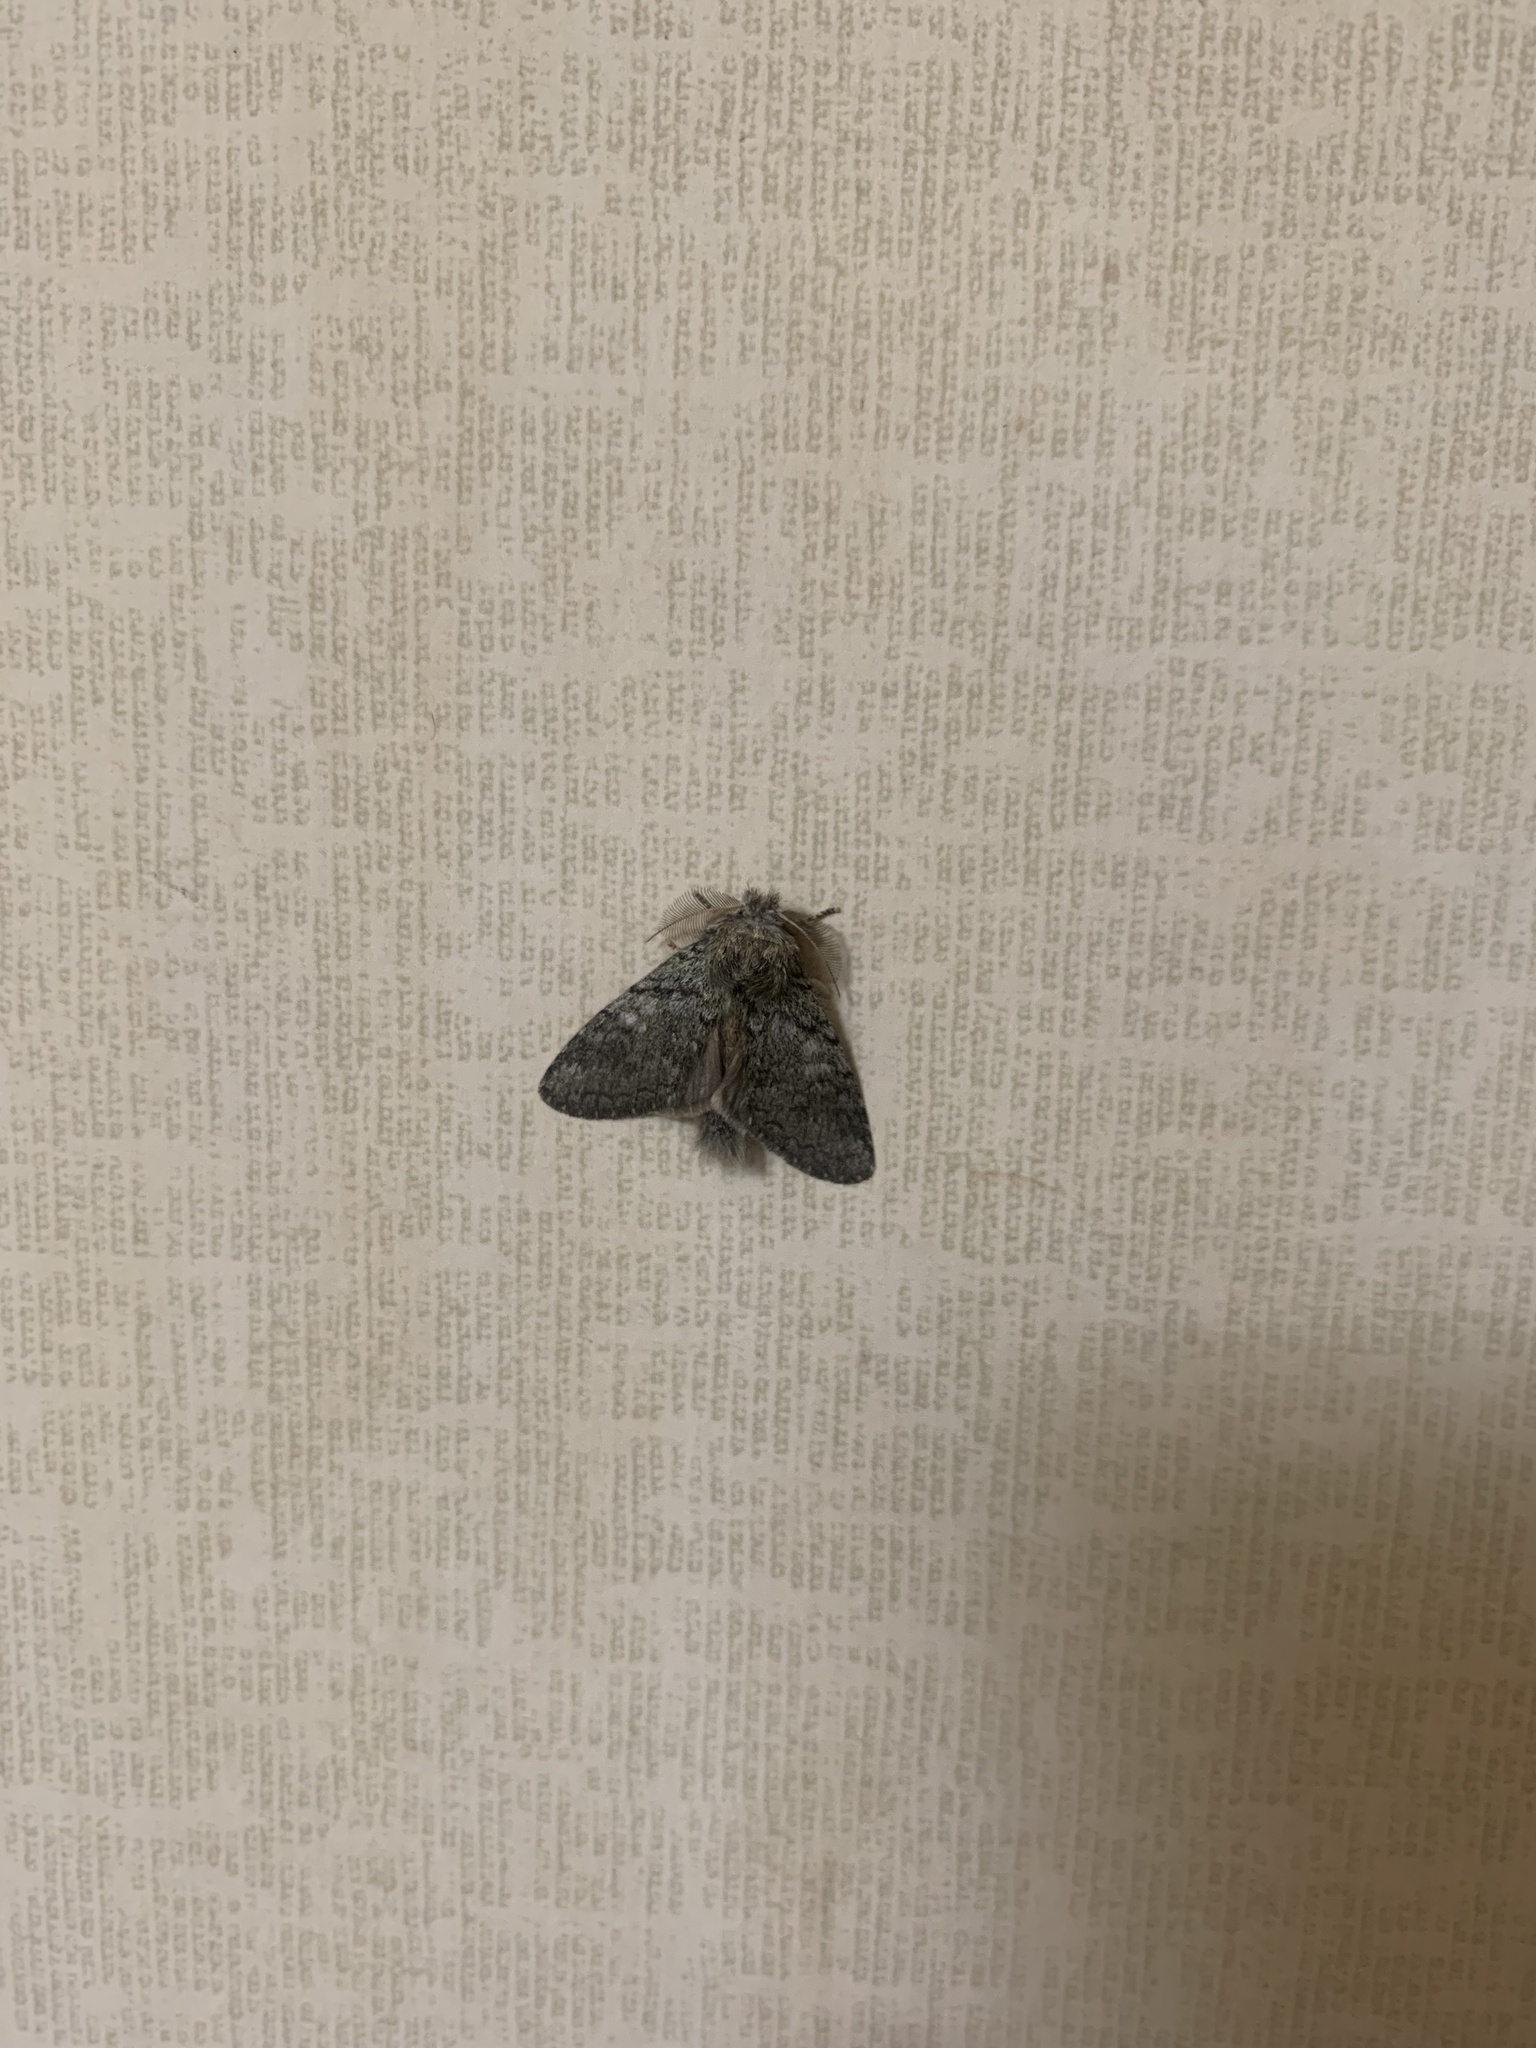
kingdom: Animalia
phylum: Arthropoda
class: Insecta
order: Lepidoptera
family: Notodontidae
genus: Syntypistis
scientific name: Syntypistis punctatella
